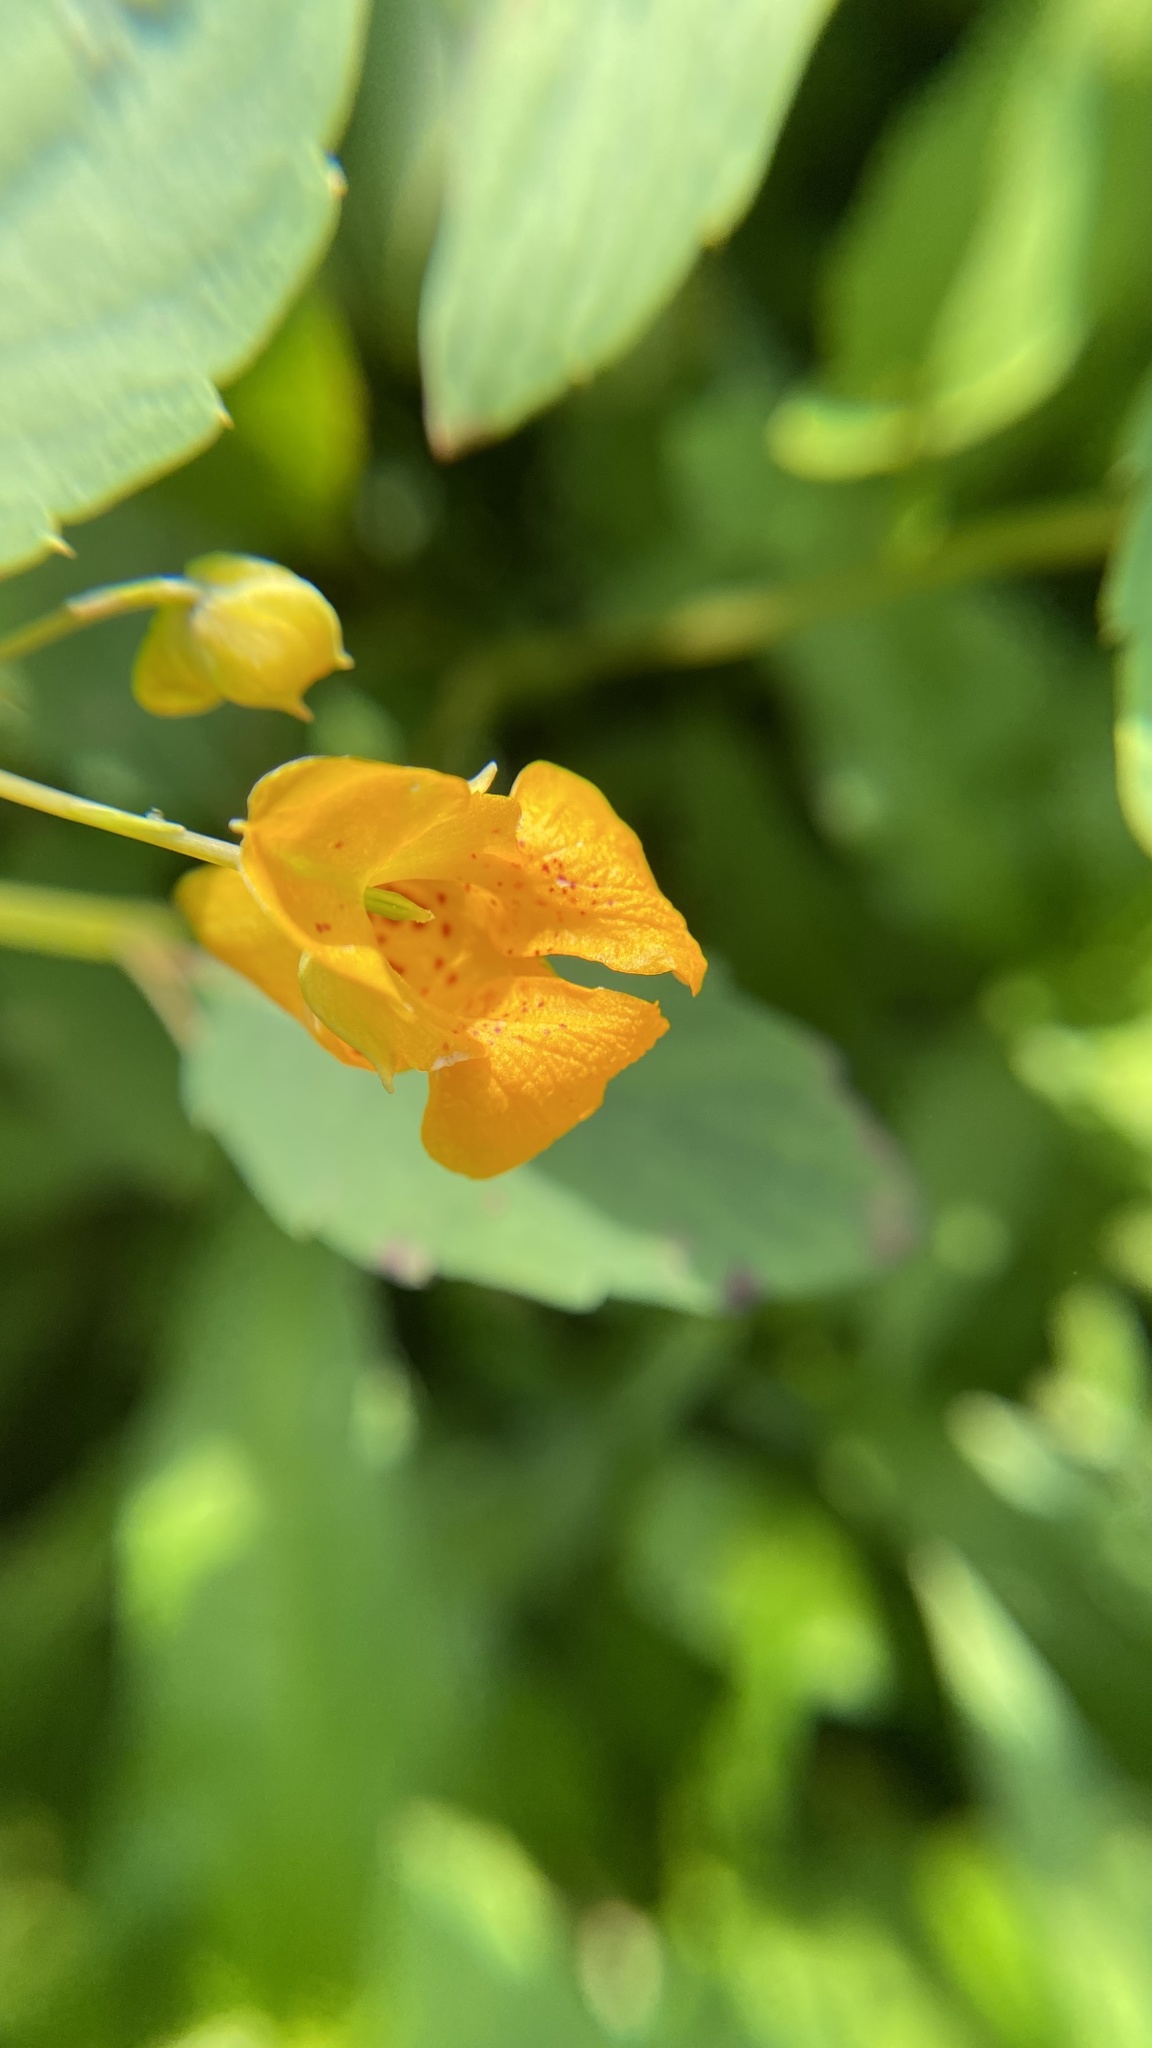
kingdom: Plantae
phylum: Tracheophyta
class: Magnoliopsida
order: Ericales
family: Balsaminaceae
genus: Impatiens
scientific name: Impatiens capensis
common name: Orange balsam
